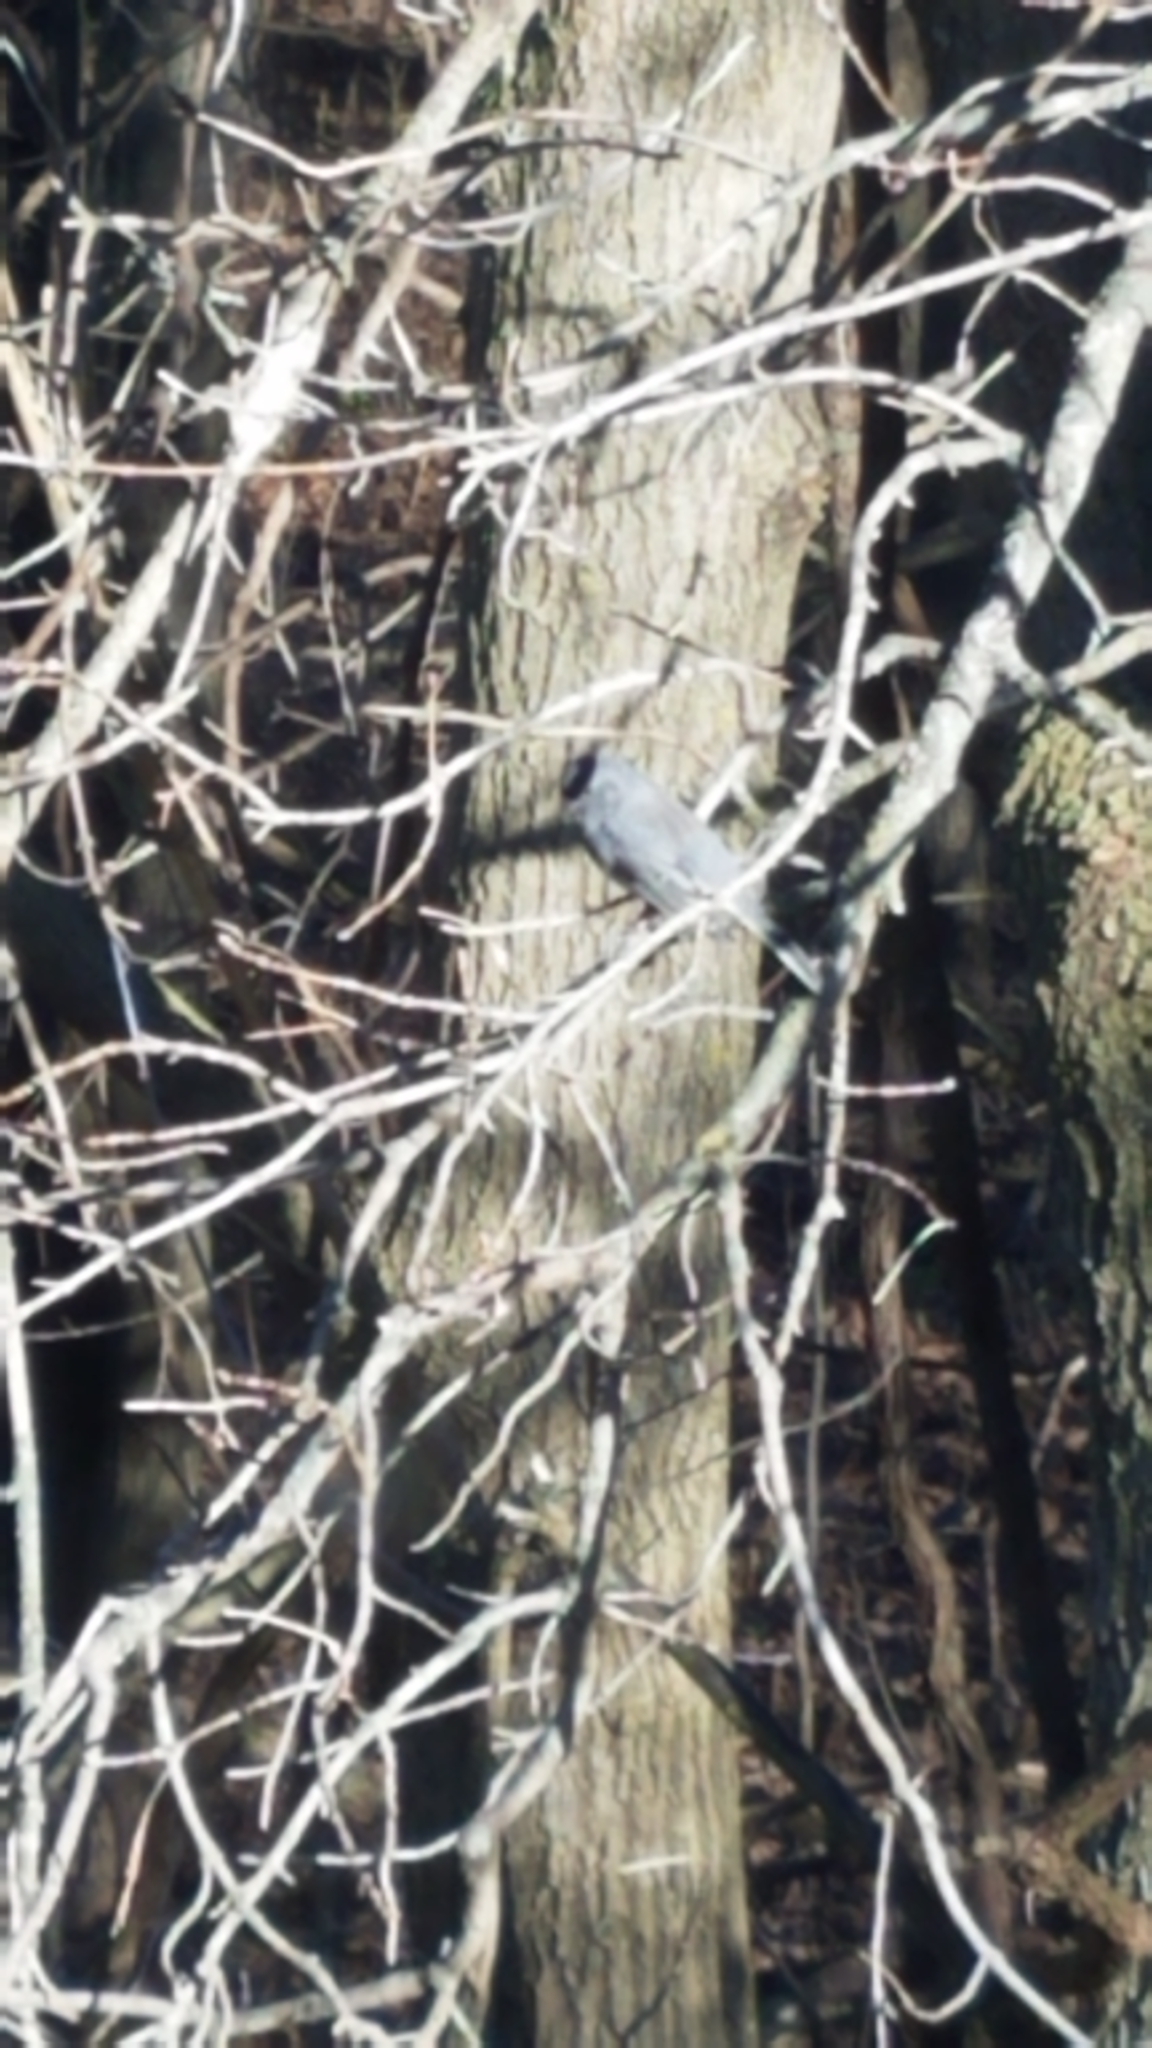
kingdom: Animalia
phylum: Chordata
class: Aves
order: Passeriformes
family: Passerellidae
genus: Junco
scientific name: Junco hyemalis
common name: Dark-eyed junco
